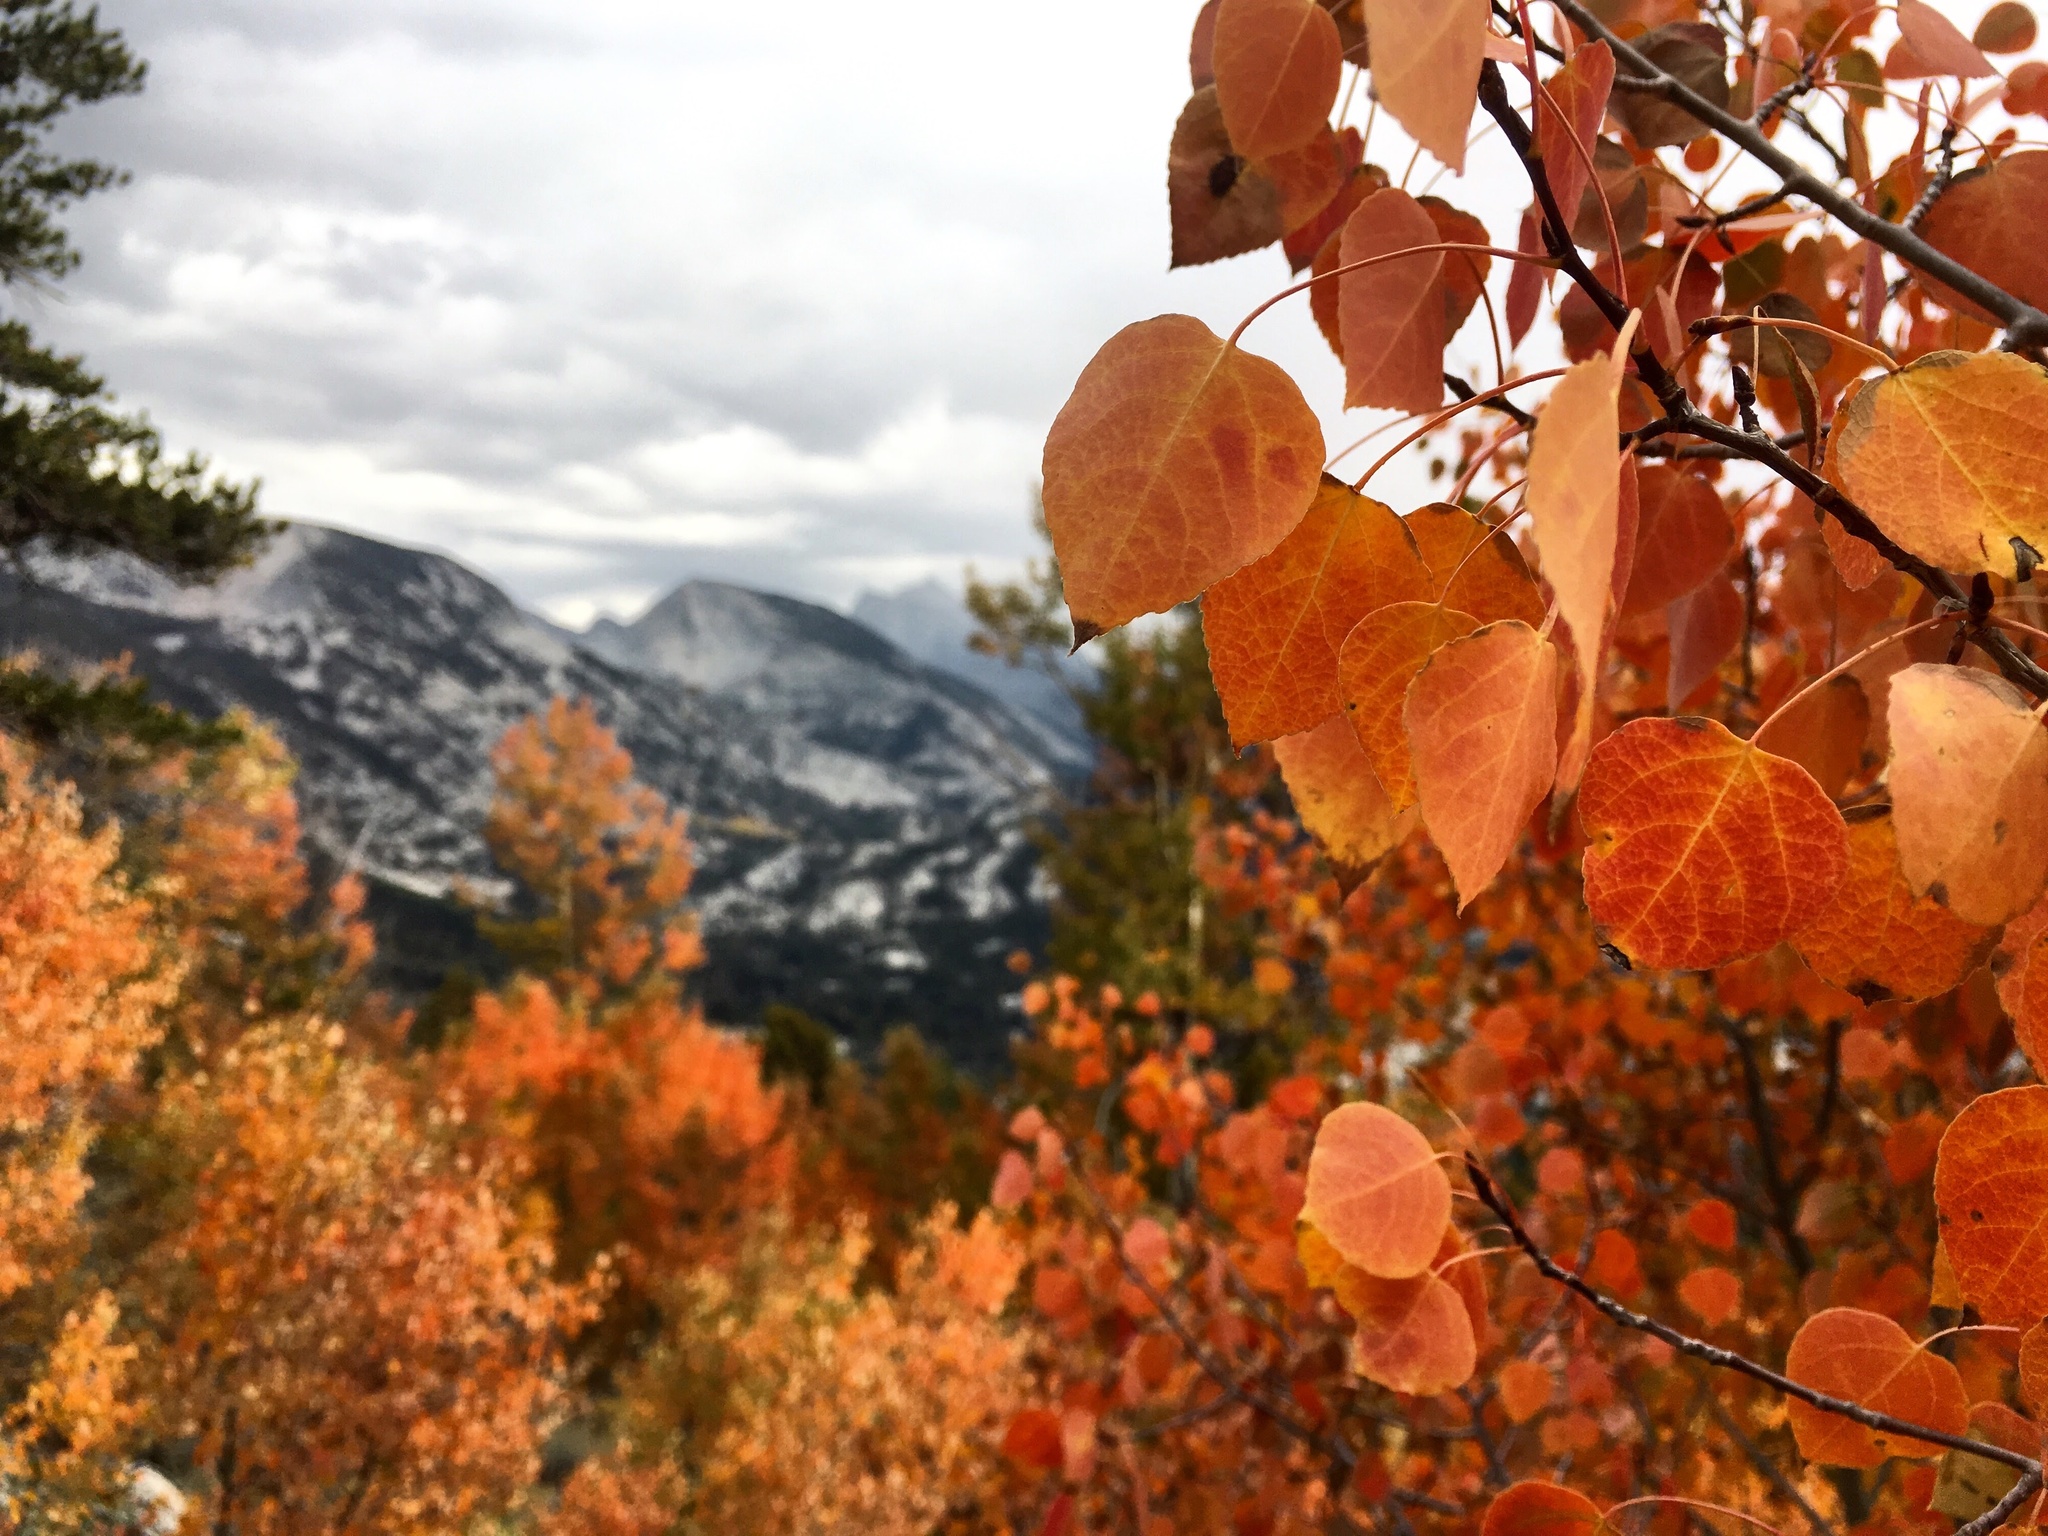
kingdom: Plantae
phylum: Tracheophyta
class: Magnoliopsida
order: Malpighiales
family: Salicaceae
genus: Populus
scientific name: Populus tremuloides
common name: Quaking aspen
